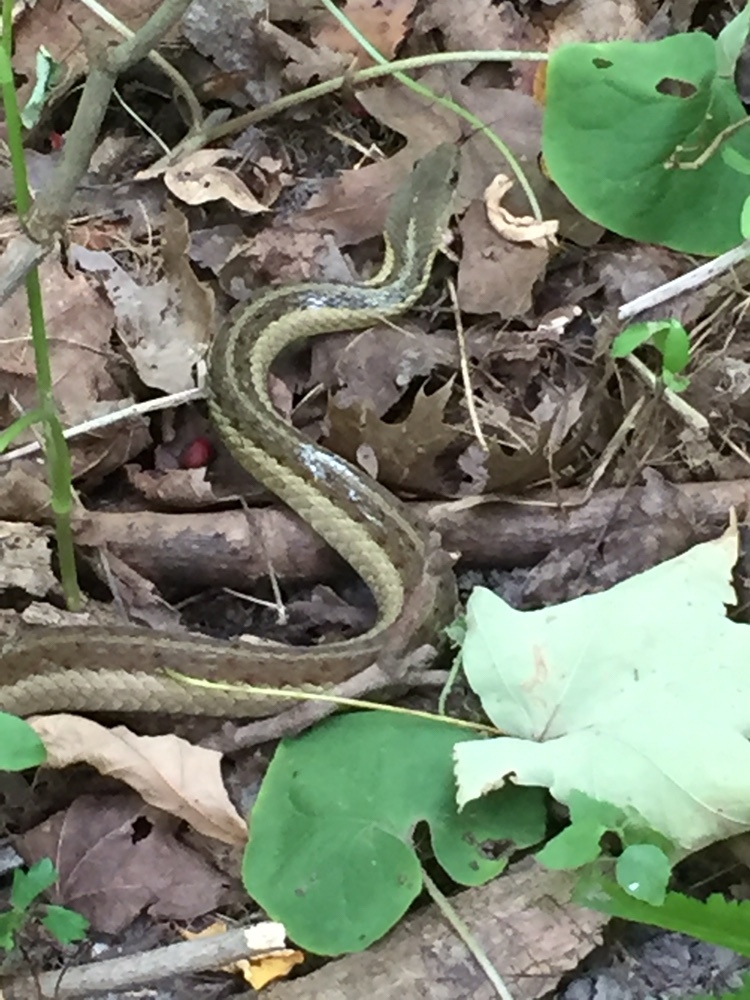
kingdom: Animalia
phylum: Chordata
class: Squamata
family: Colubridae
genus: Thamnophis
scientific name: Thamnophis sirtalis
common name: Common garter snake
